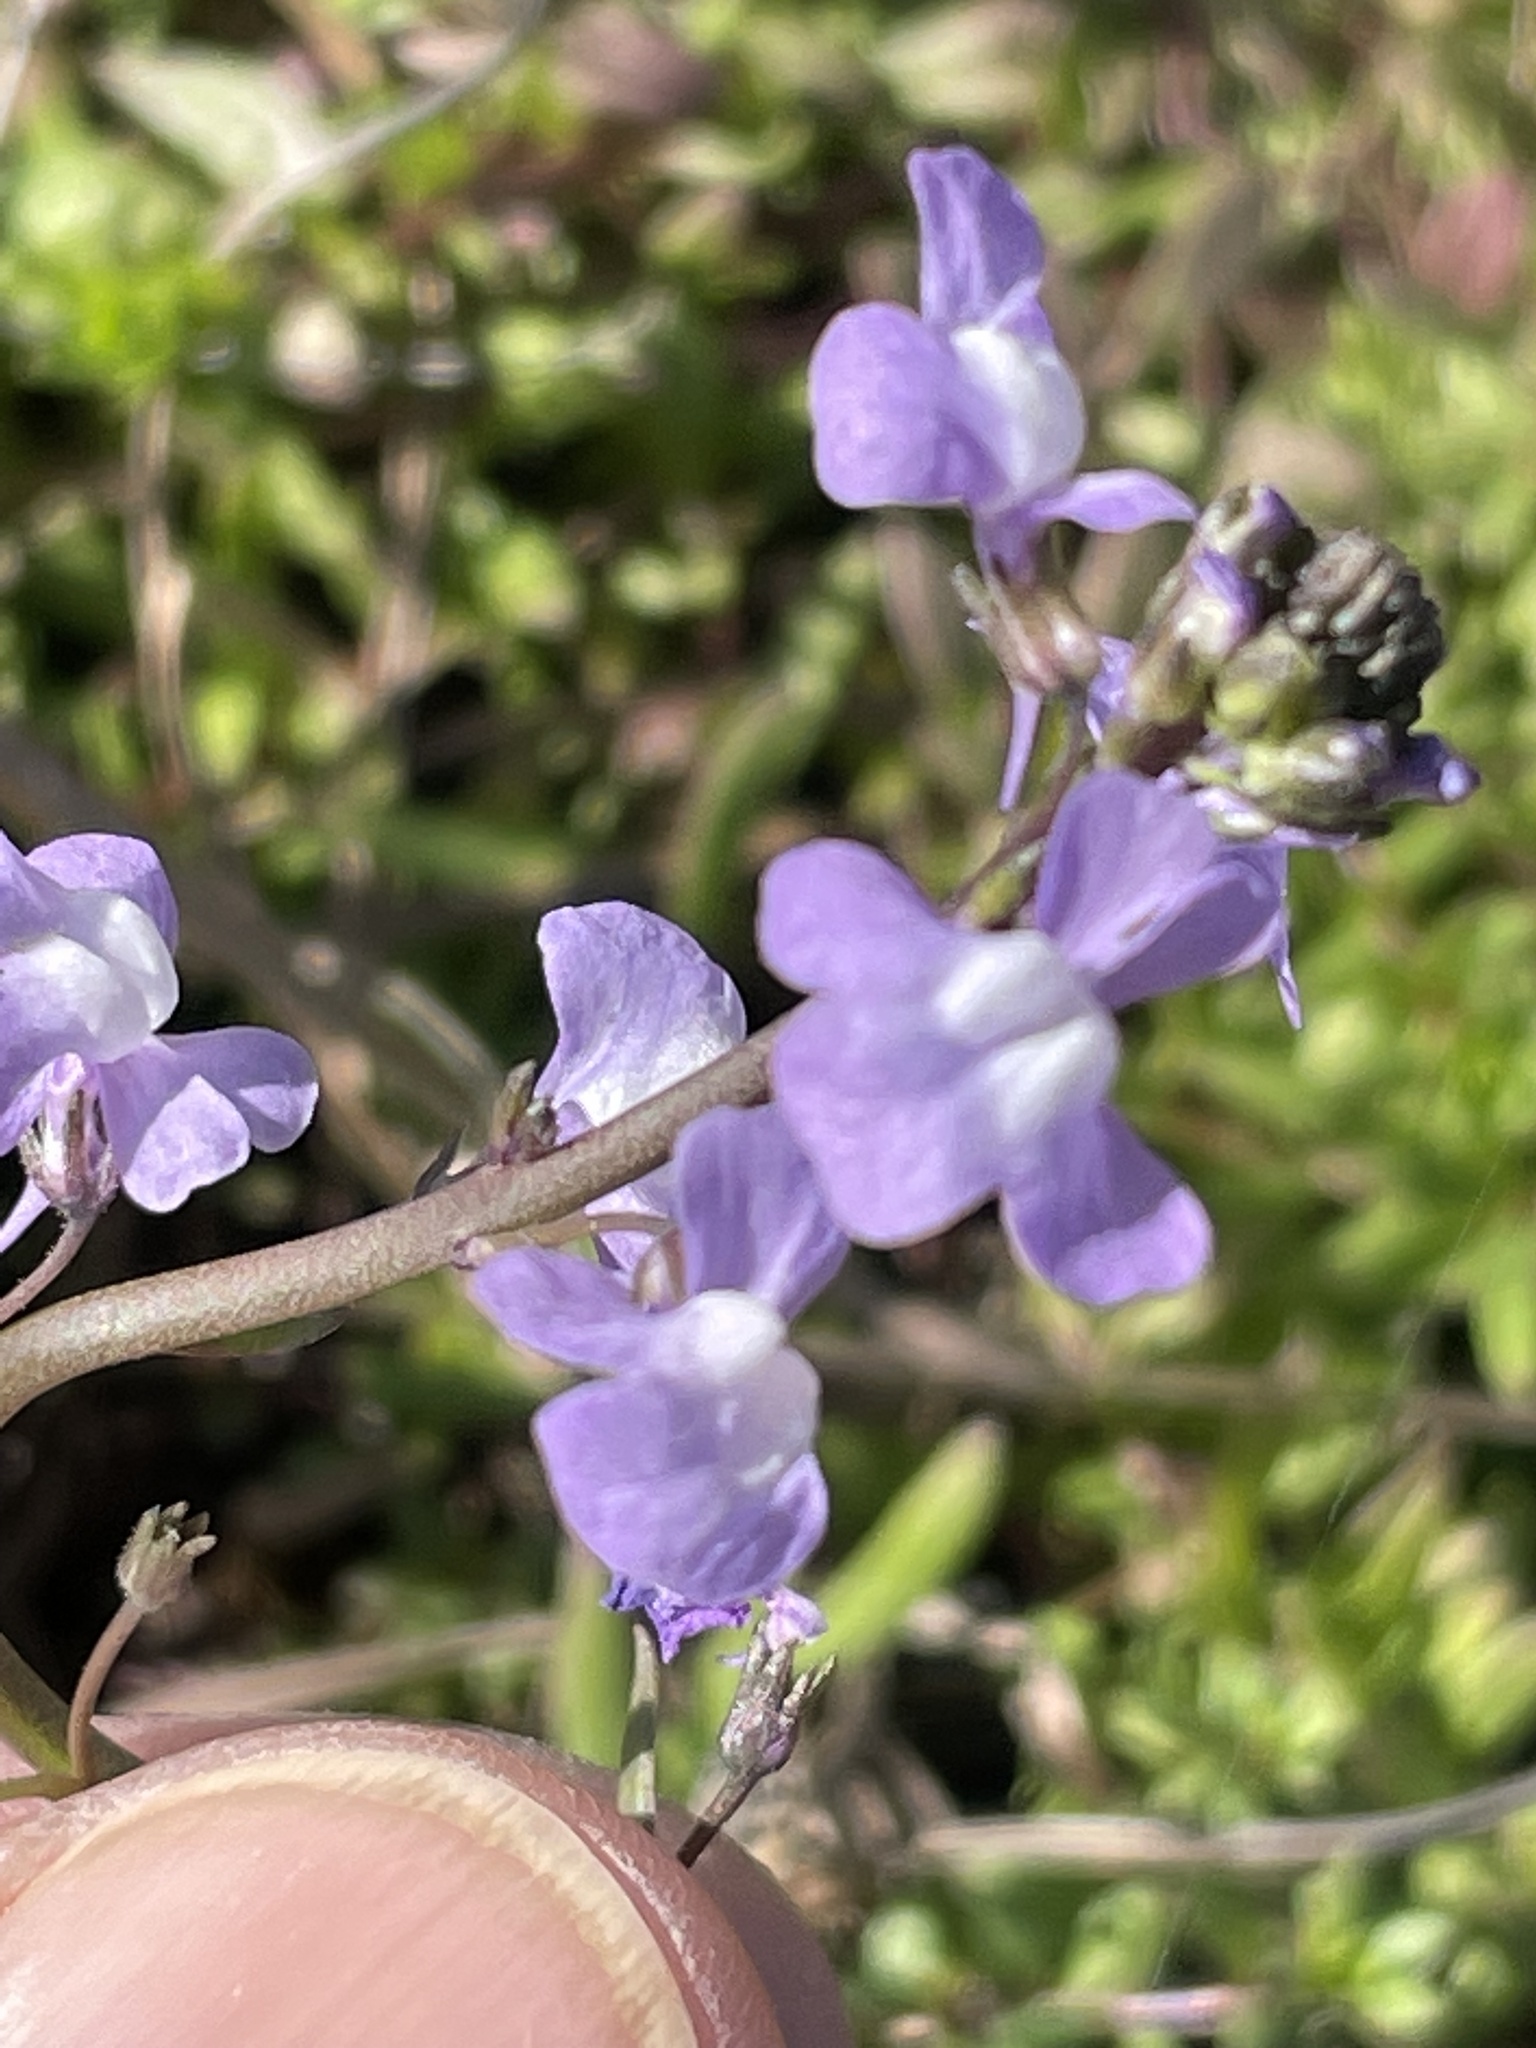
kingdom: Plantae
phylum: Tracheophyta
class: Magnoliopsida
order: Lamiales
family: Plantaginaceae
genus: Nuttallanthus
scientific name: Nuttallanthus canadensis
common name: Blue toadflax
